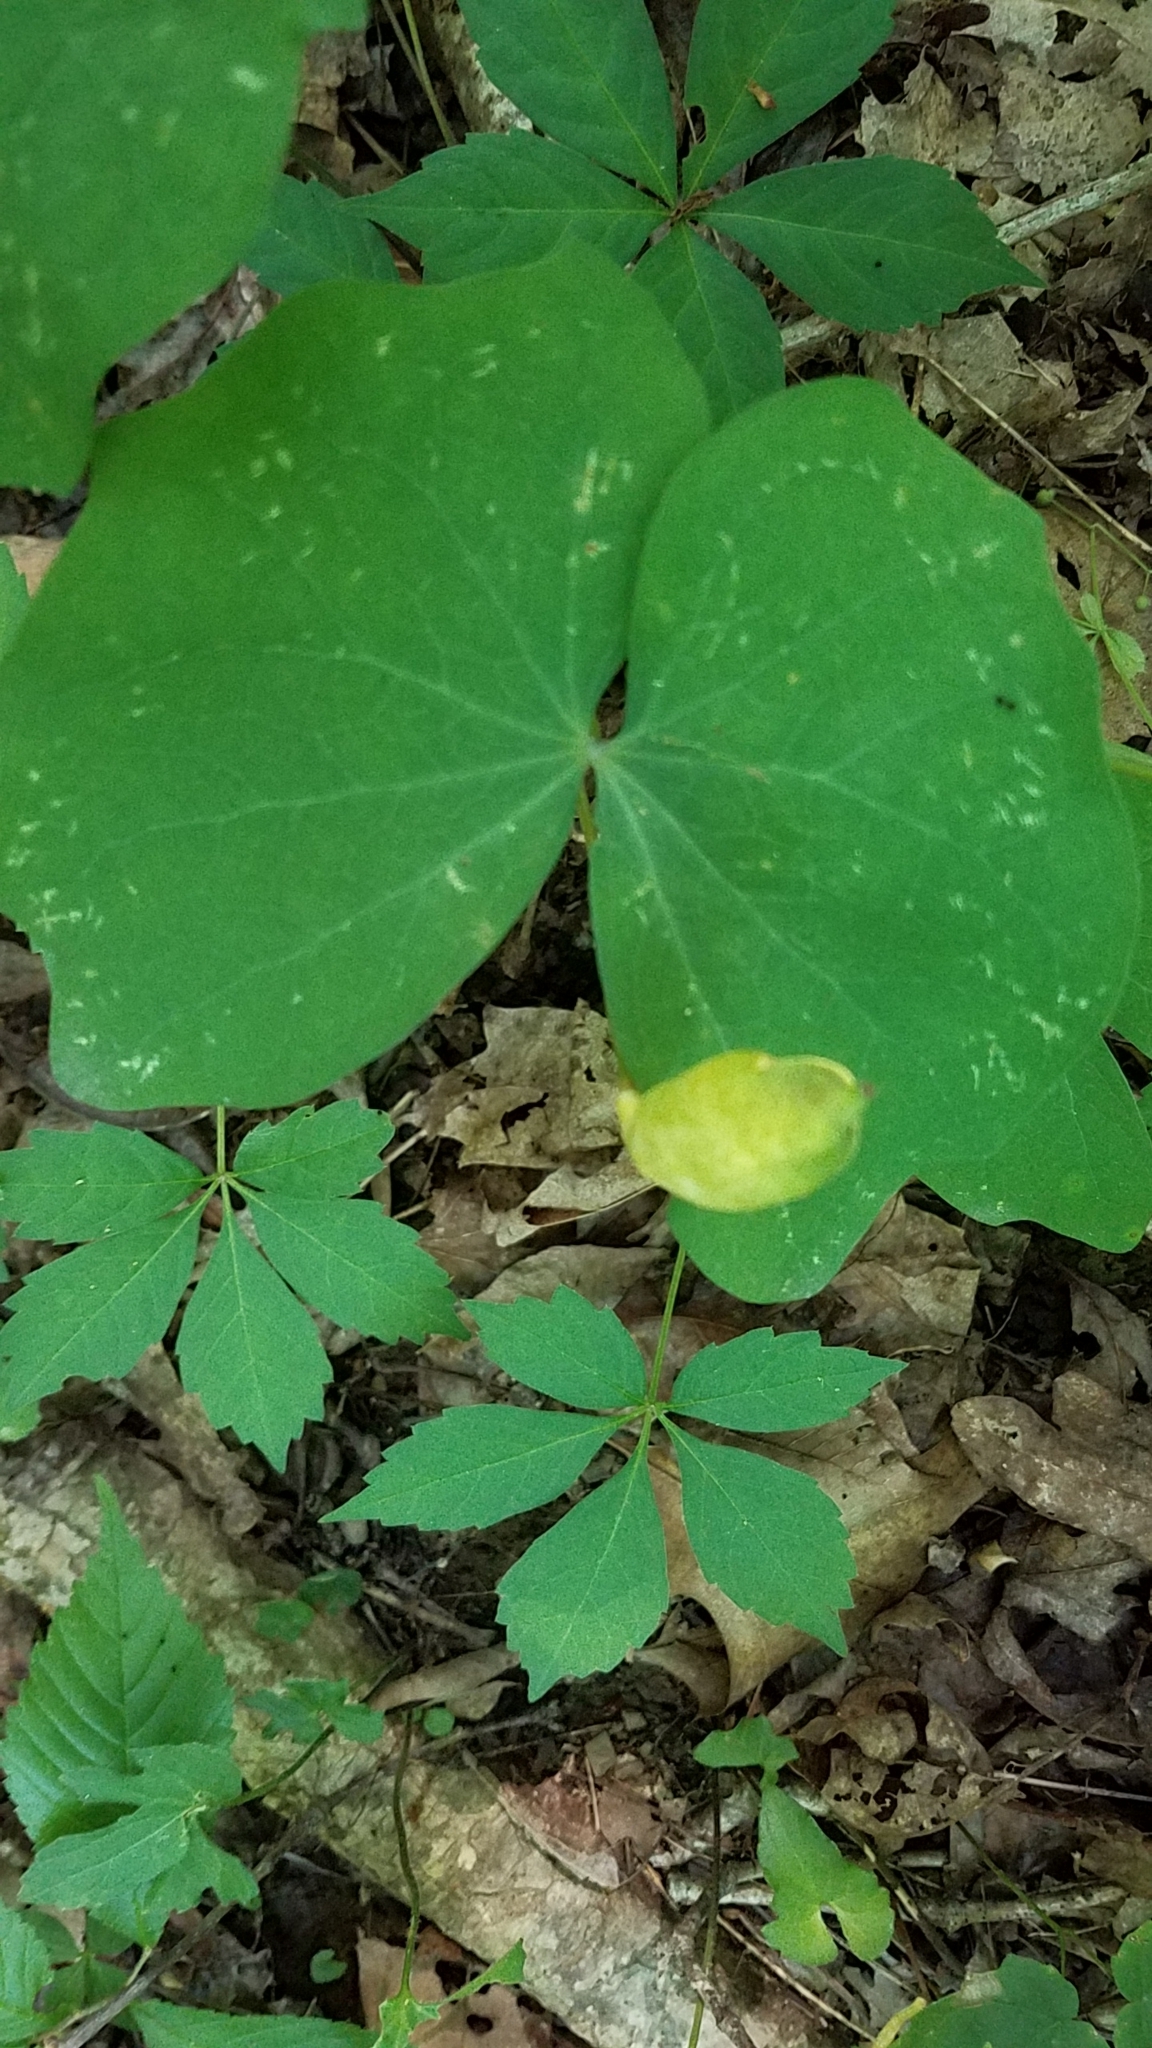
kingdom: Plantae
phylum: Tracheophyta
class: Magnoliopsida
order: Ranunculales
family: Berberidaceae
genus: Jeffersonia
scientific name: Jeffersonia diphylla
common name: Rheumatism-root
